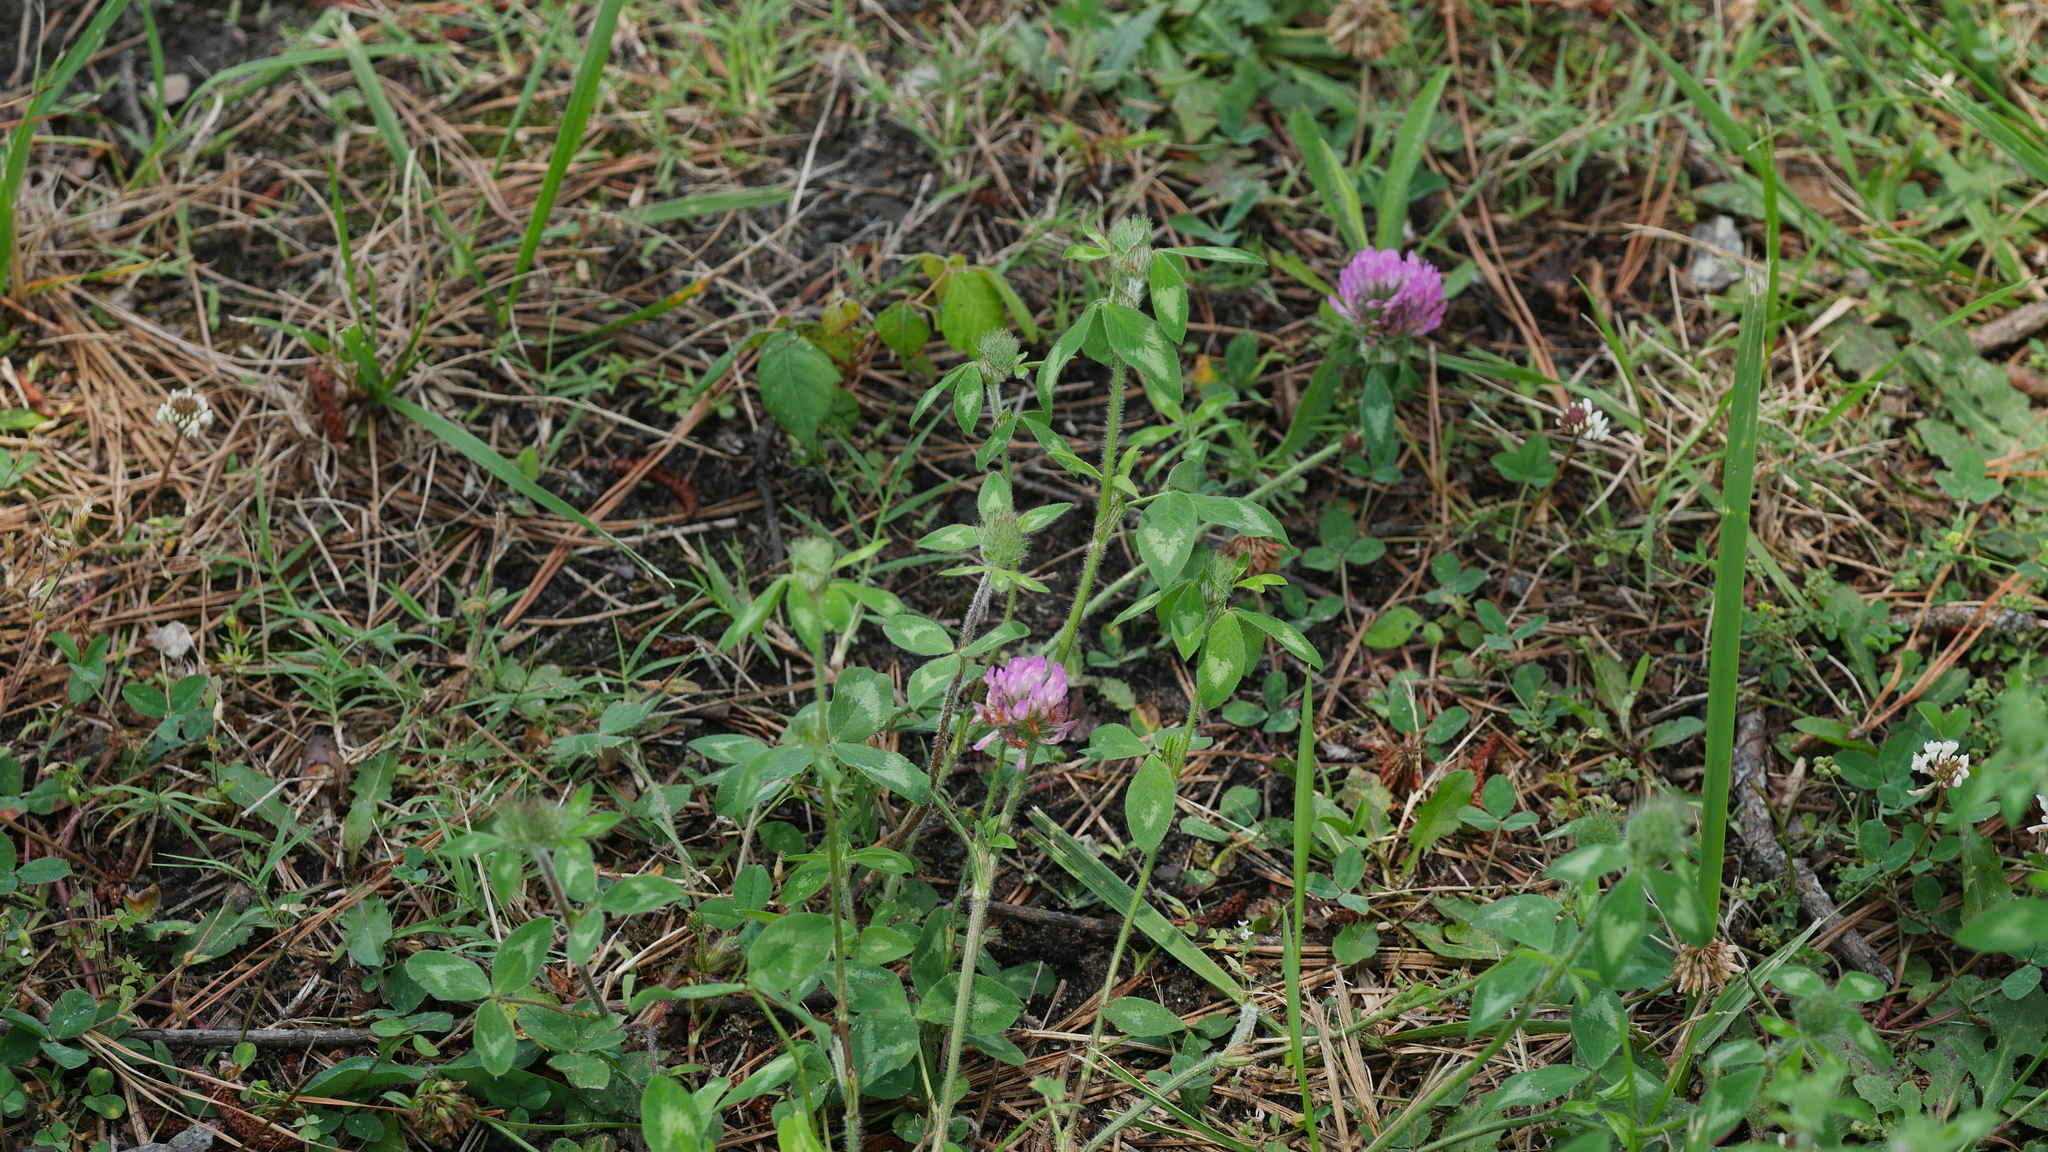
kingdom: Plantae
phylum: Tracheophyta
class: Magnoliopsida
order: Fabales
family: Fabaceae
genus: Trifolium
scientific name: Trifolium pratense
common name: Red clover
